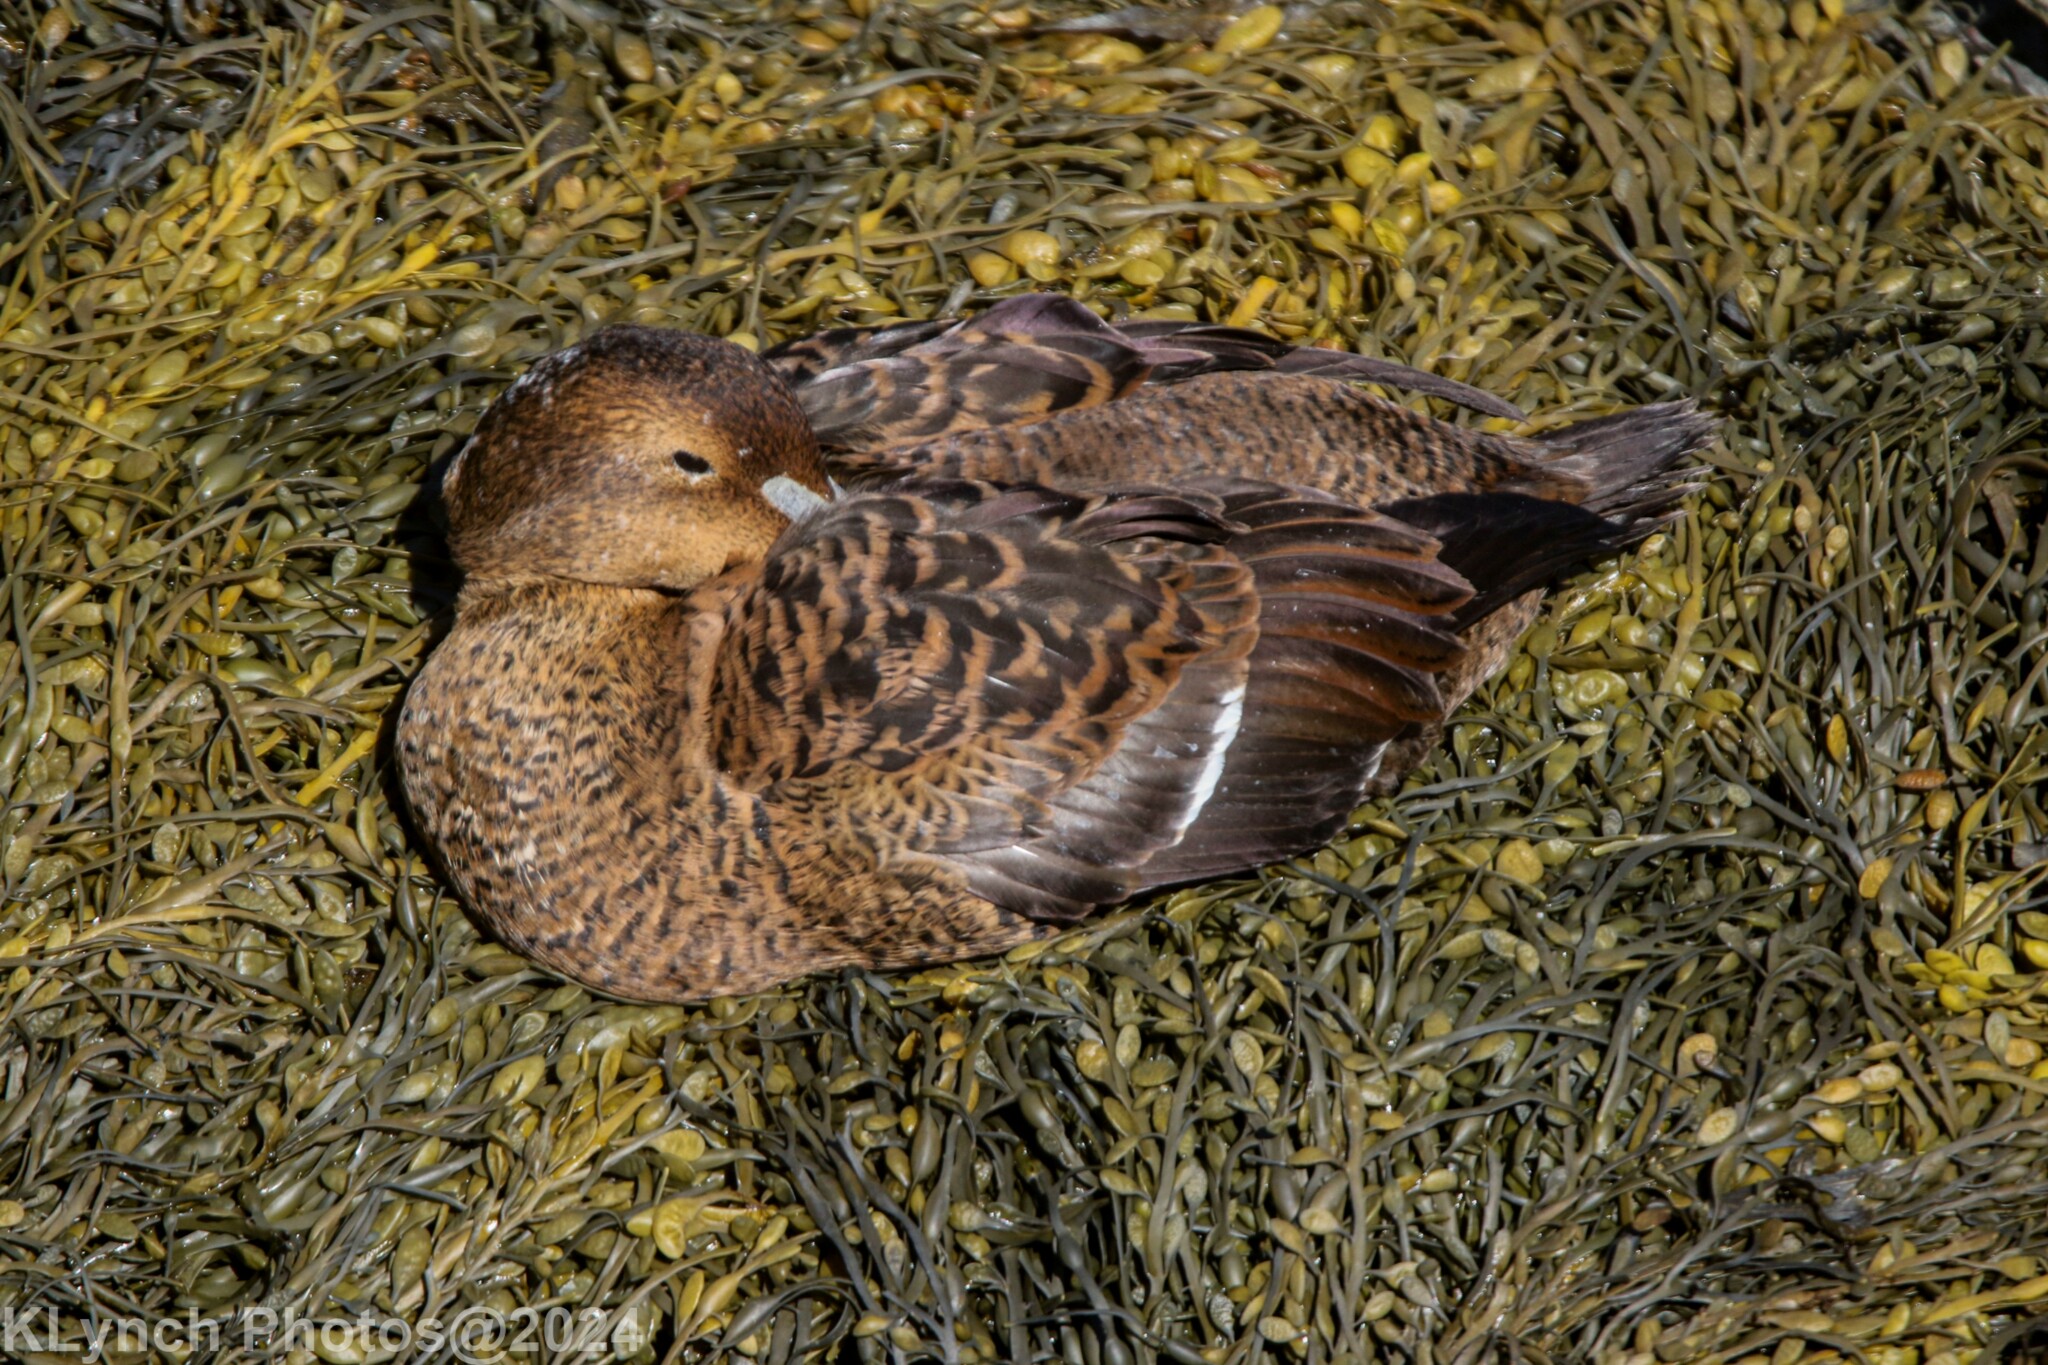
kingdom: Animalia
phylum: Chordata
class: Aves
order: Anseriformes
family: Anatidae
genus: Somateria
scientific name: Somateria mollissima
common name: Common eider
